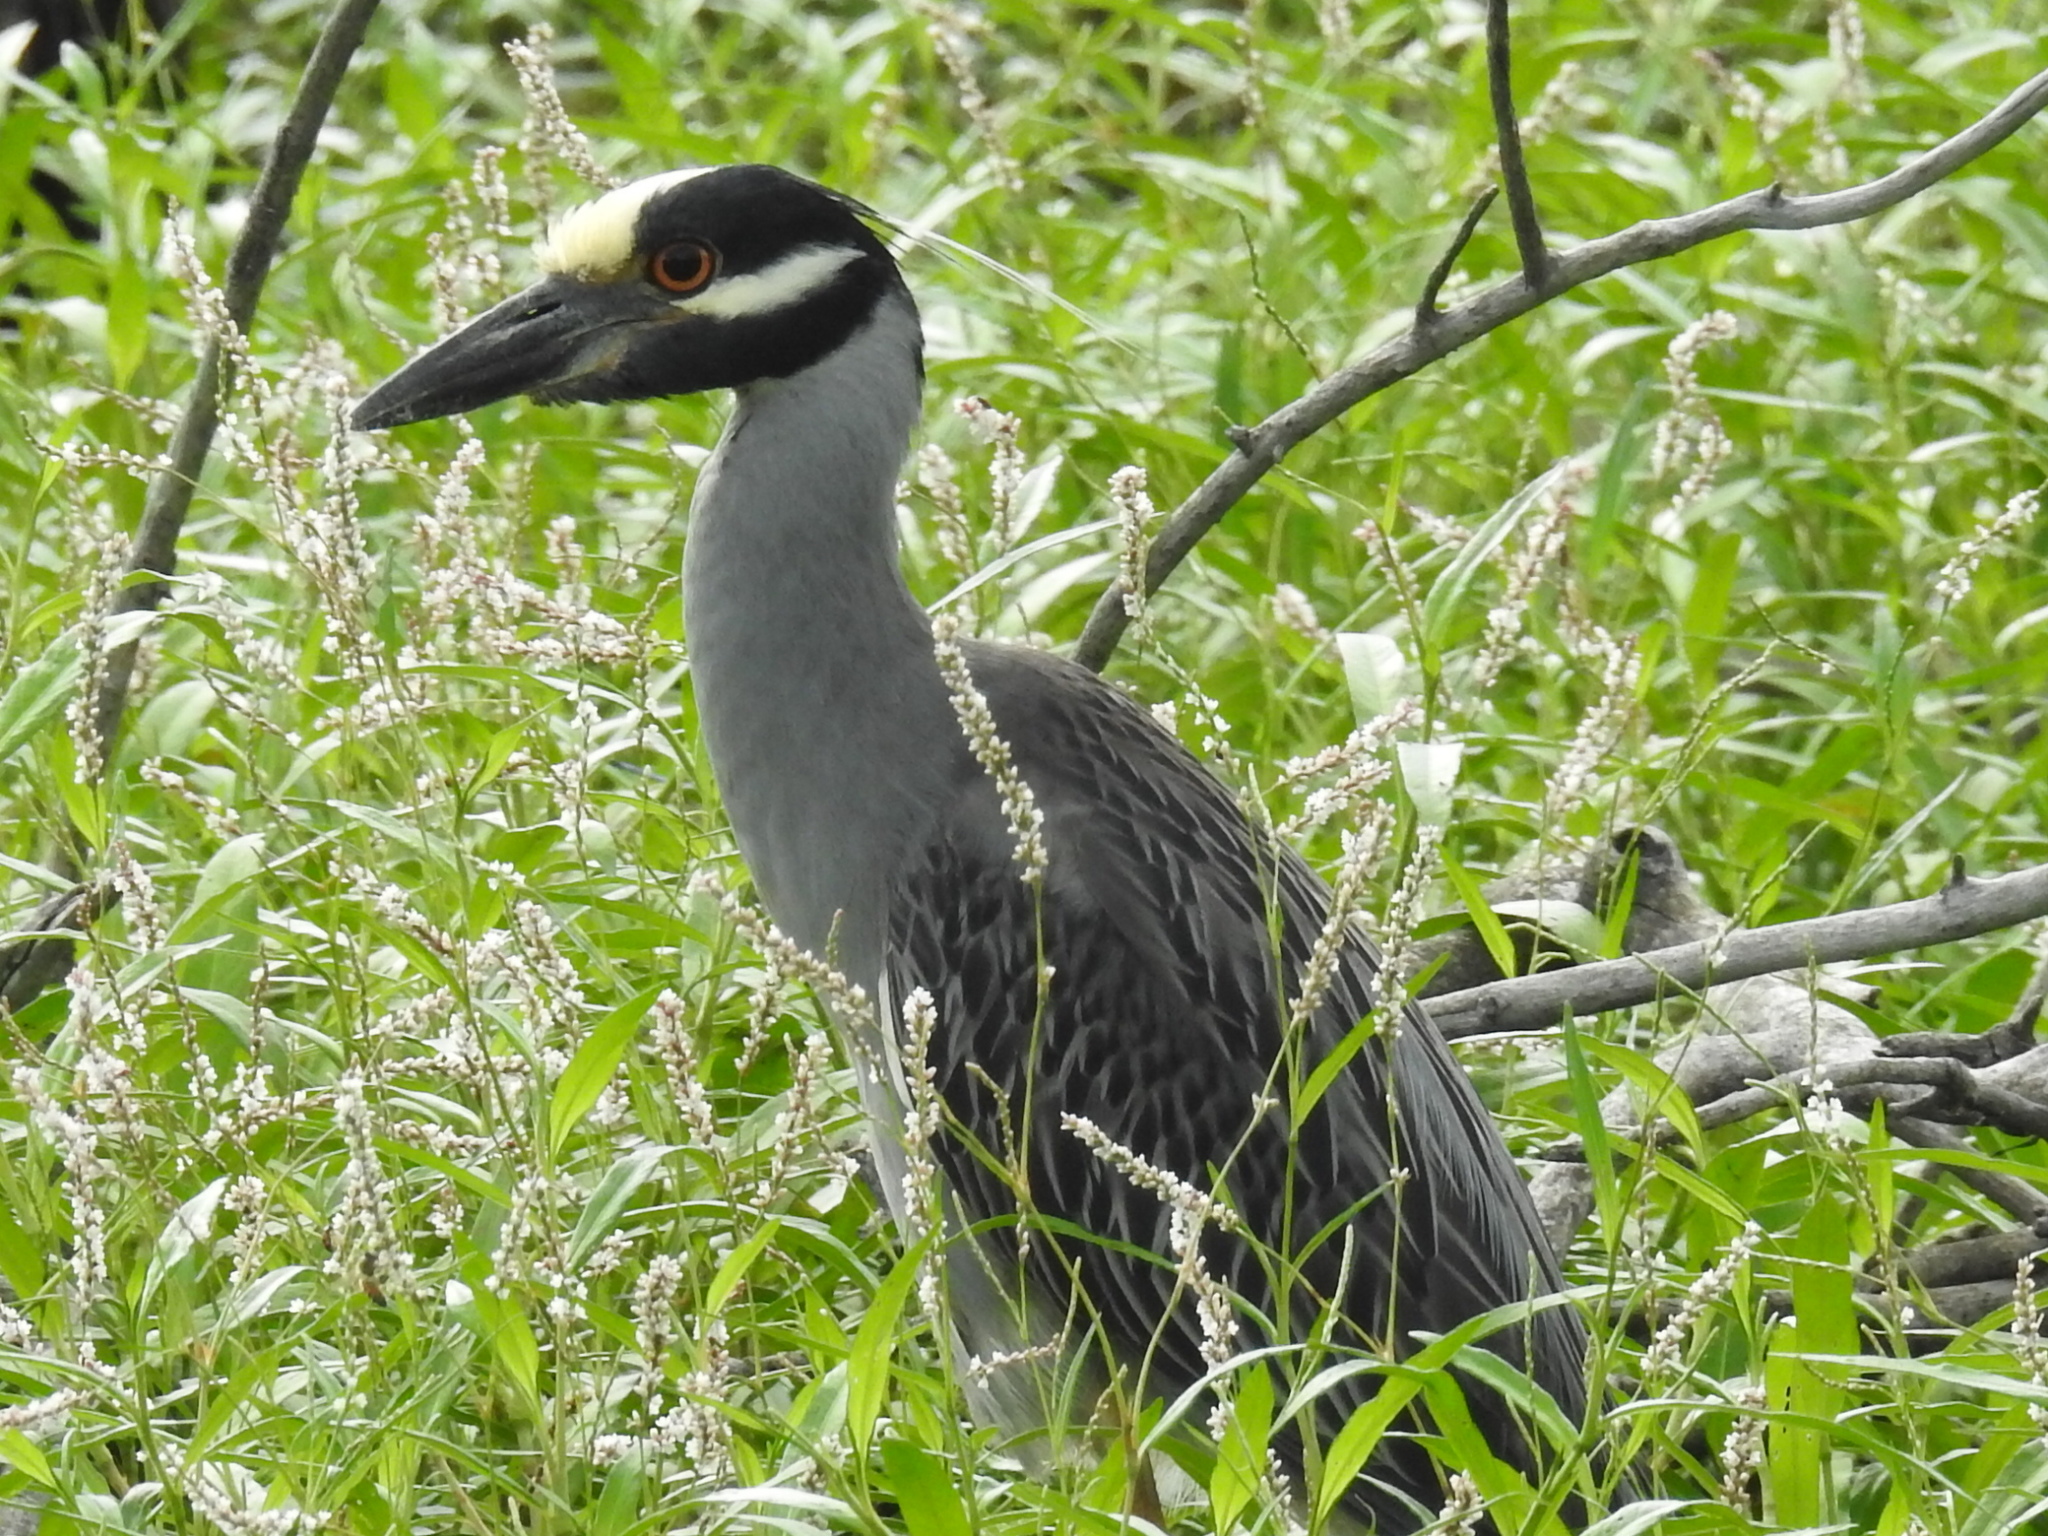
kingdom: Animalia
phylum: Chordata
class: Aves
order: Pelecaniformes
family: Ardeidae
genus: Nyctanassa
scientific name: Nyctanassa violacea
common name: Yellow-crowned night heron
